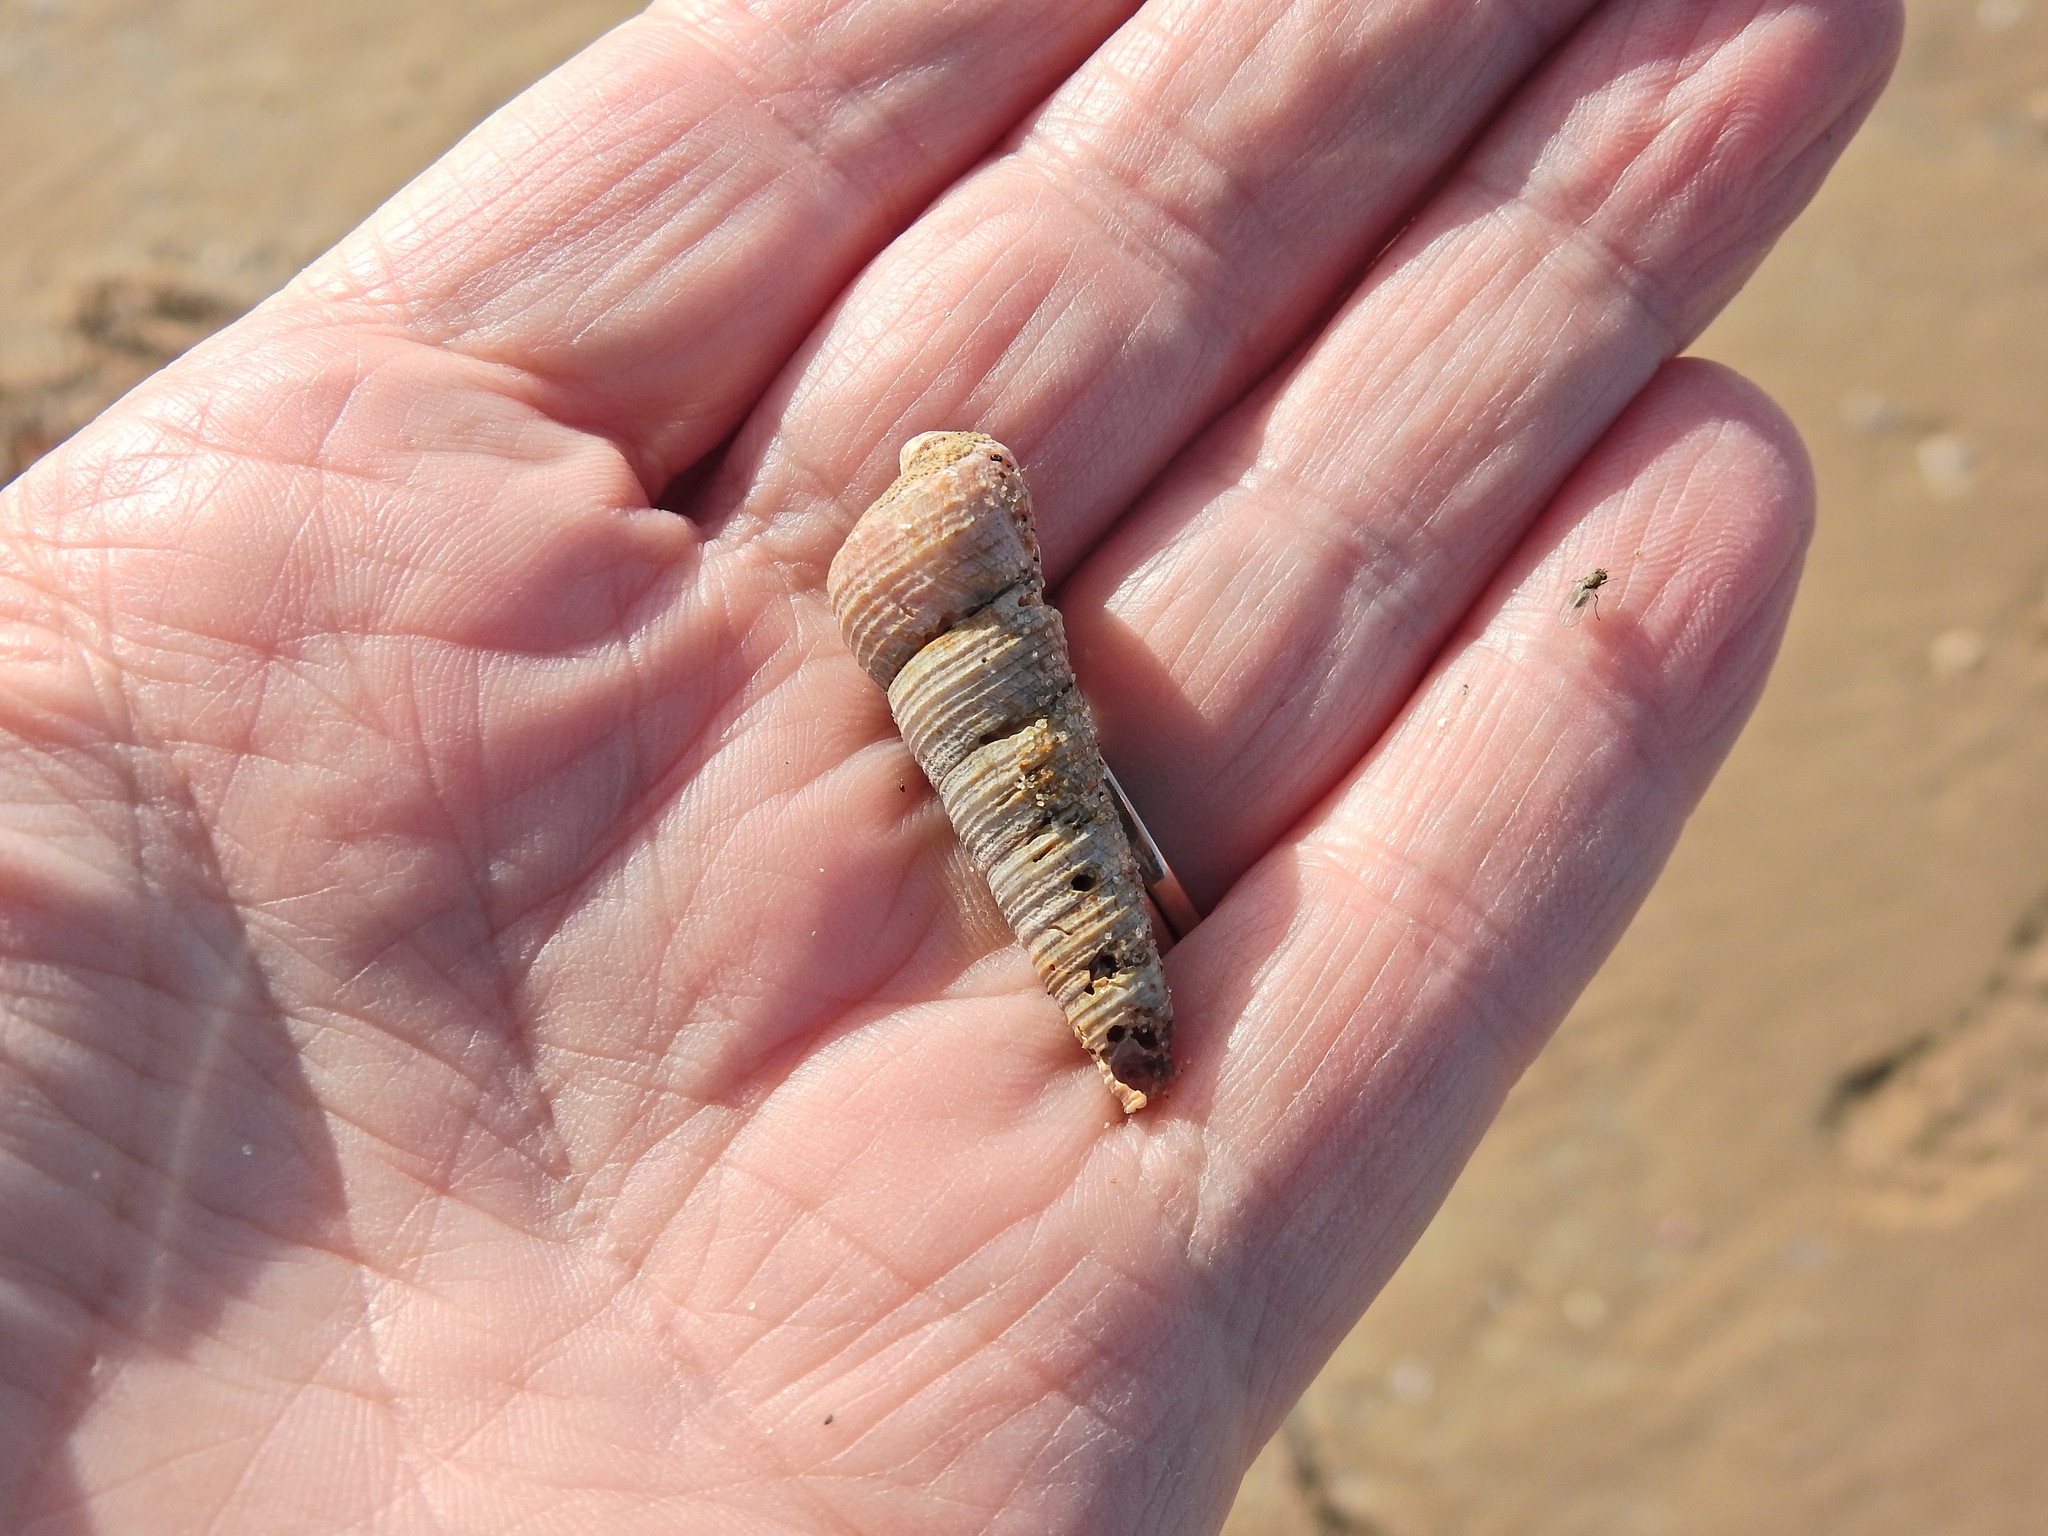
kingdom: Animalia
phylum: Mollusca
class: Gastropoda
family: Turritellidae
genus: Turritellinella
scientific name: Turritellinella tricarinata
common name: Auger shell
